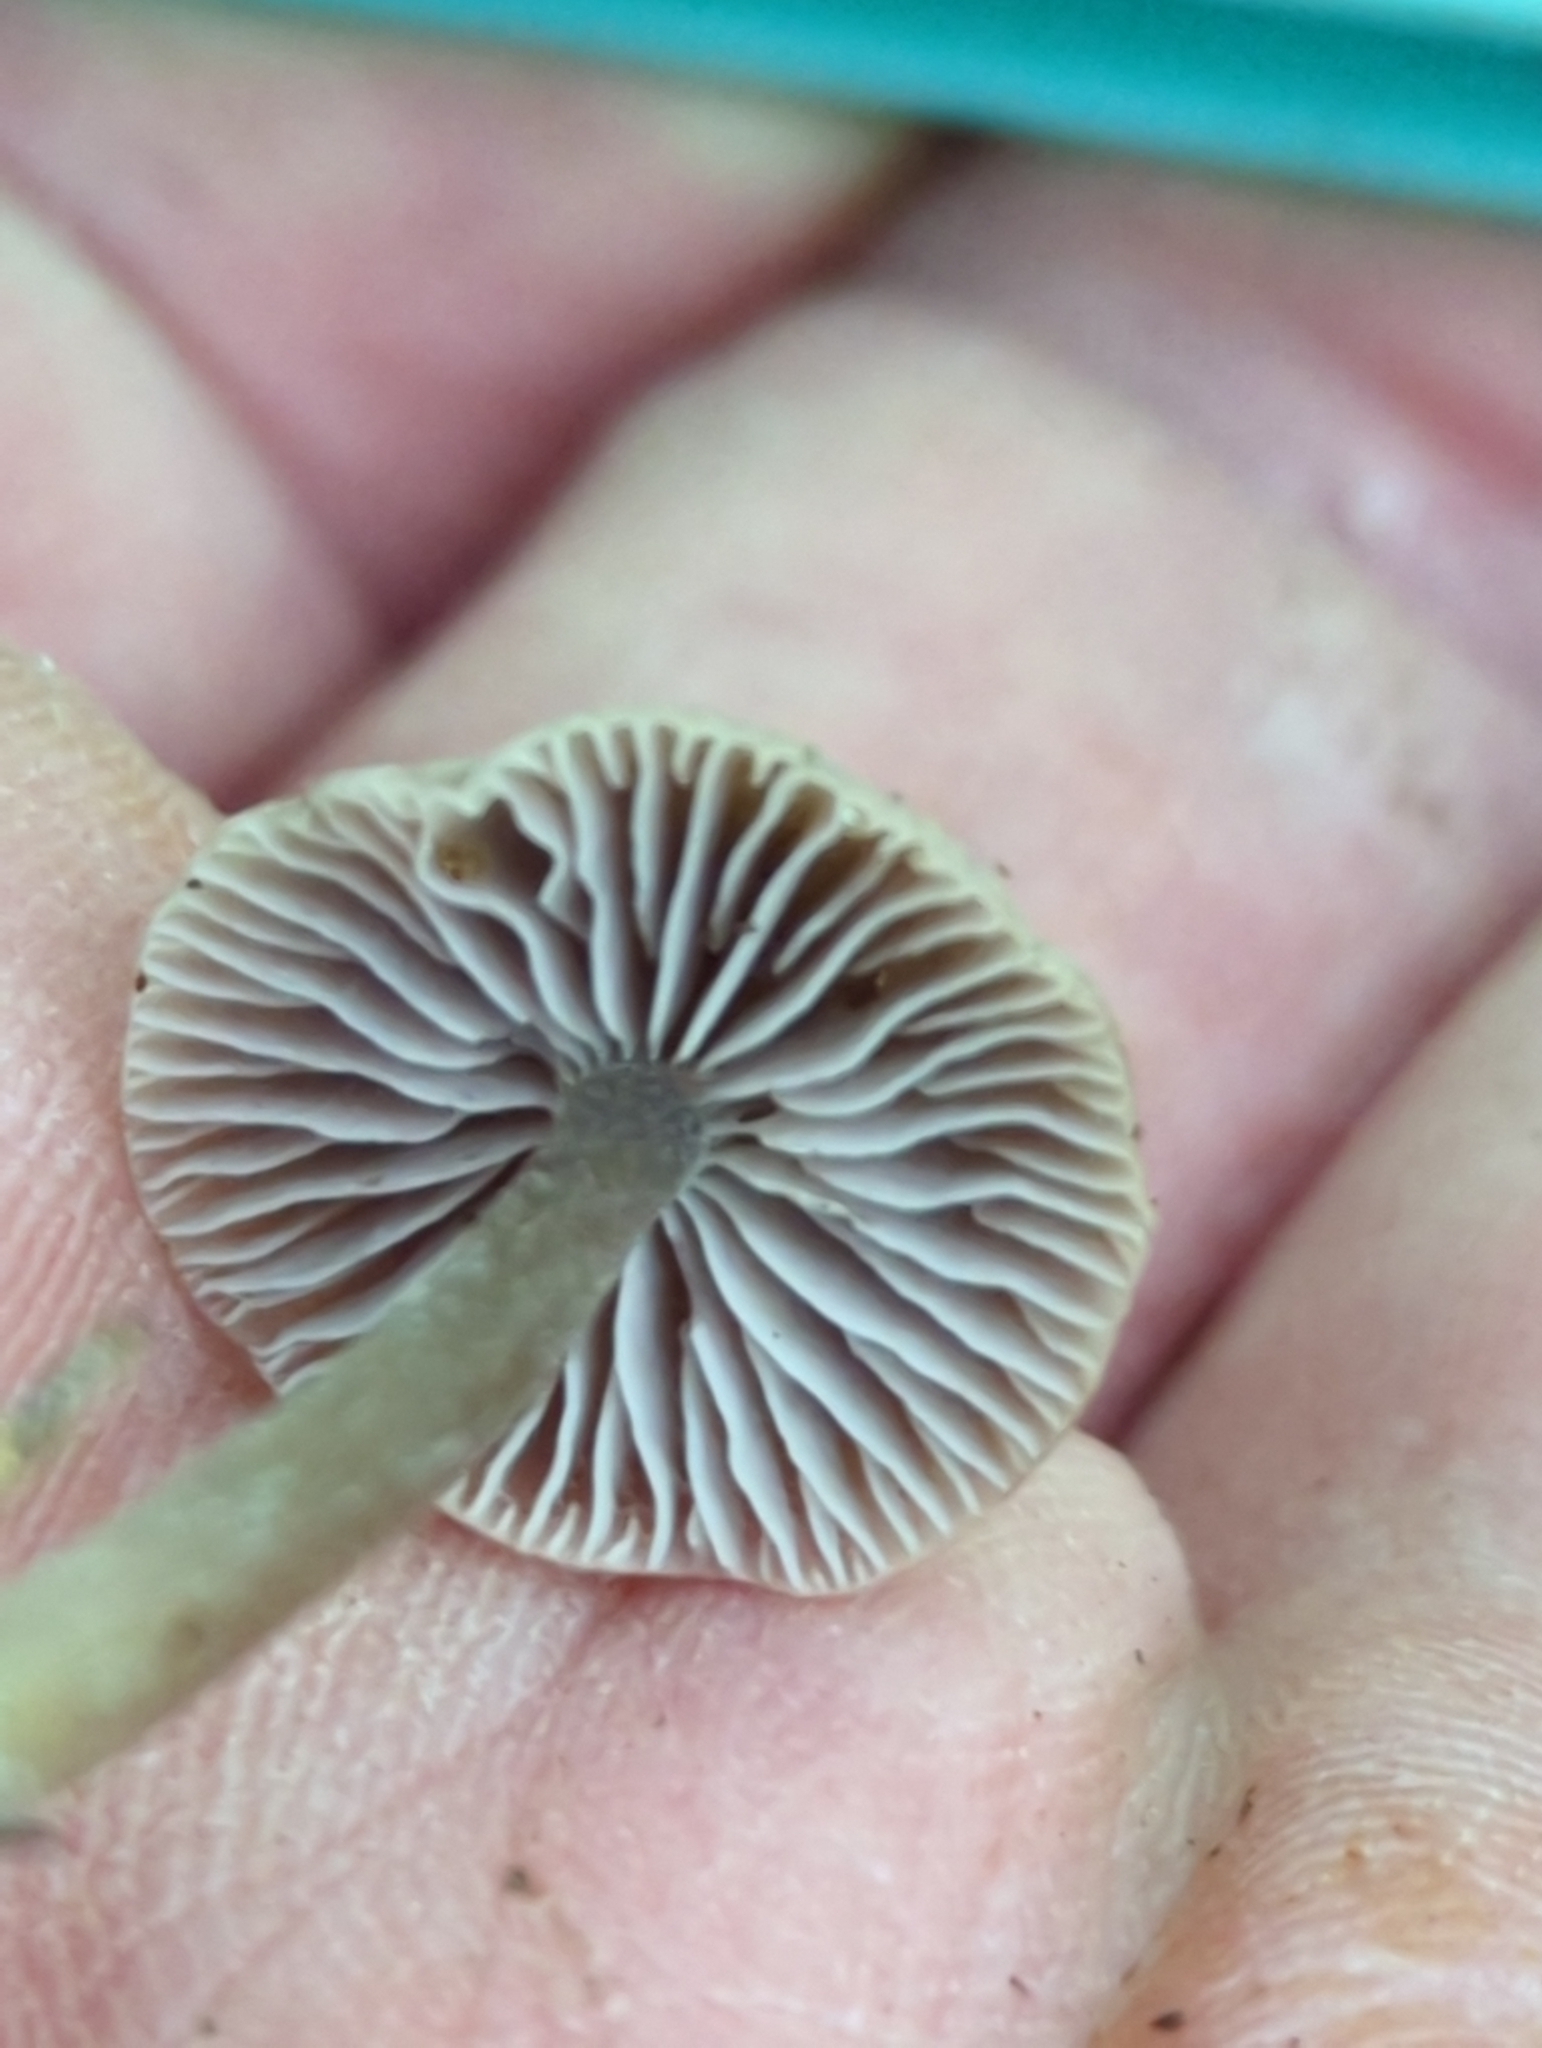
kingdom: Fungi
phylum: Basidiomycota
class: Agaricomycetes
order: Agaricales
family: Mycenaceae
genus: Mycena
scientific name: Mycena pura
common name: Lilac bonnet
